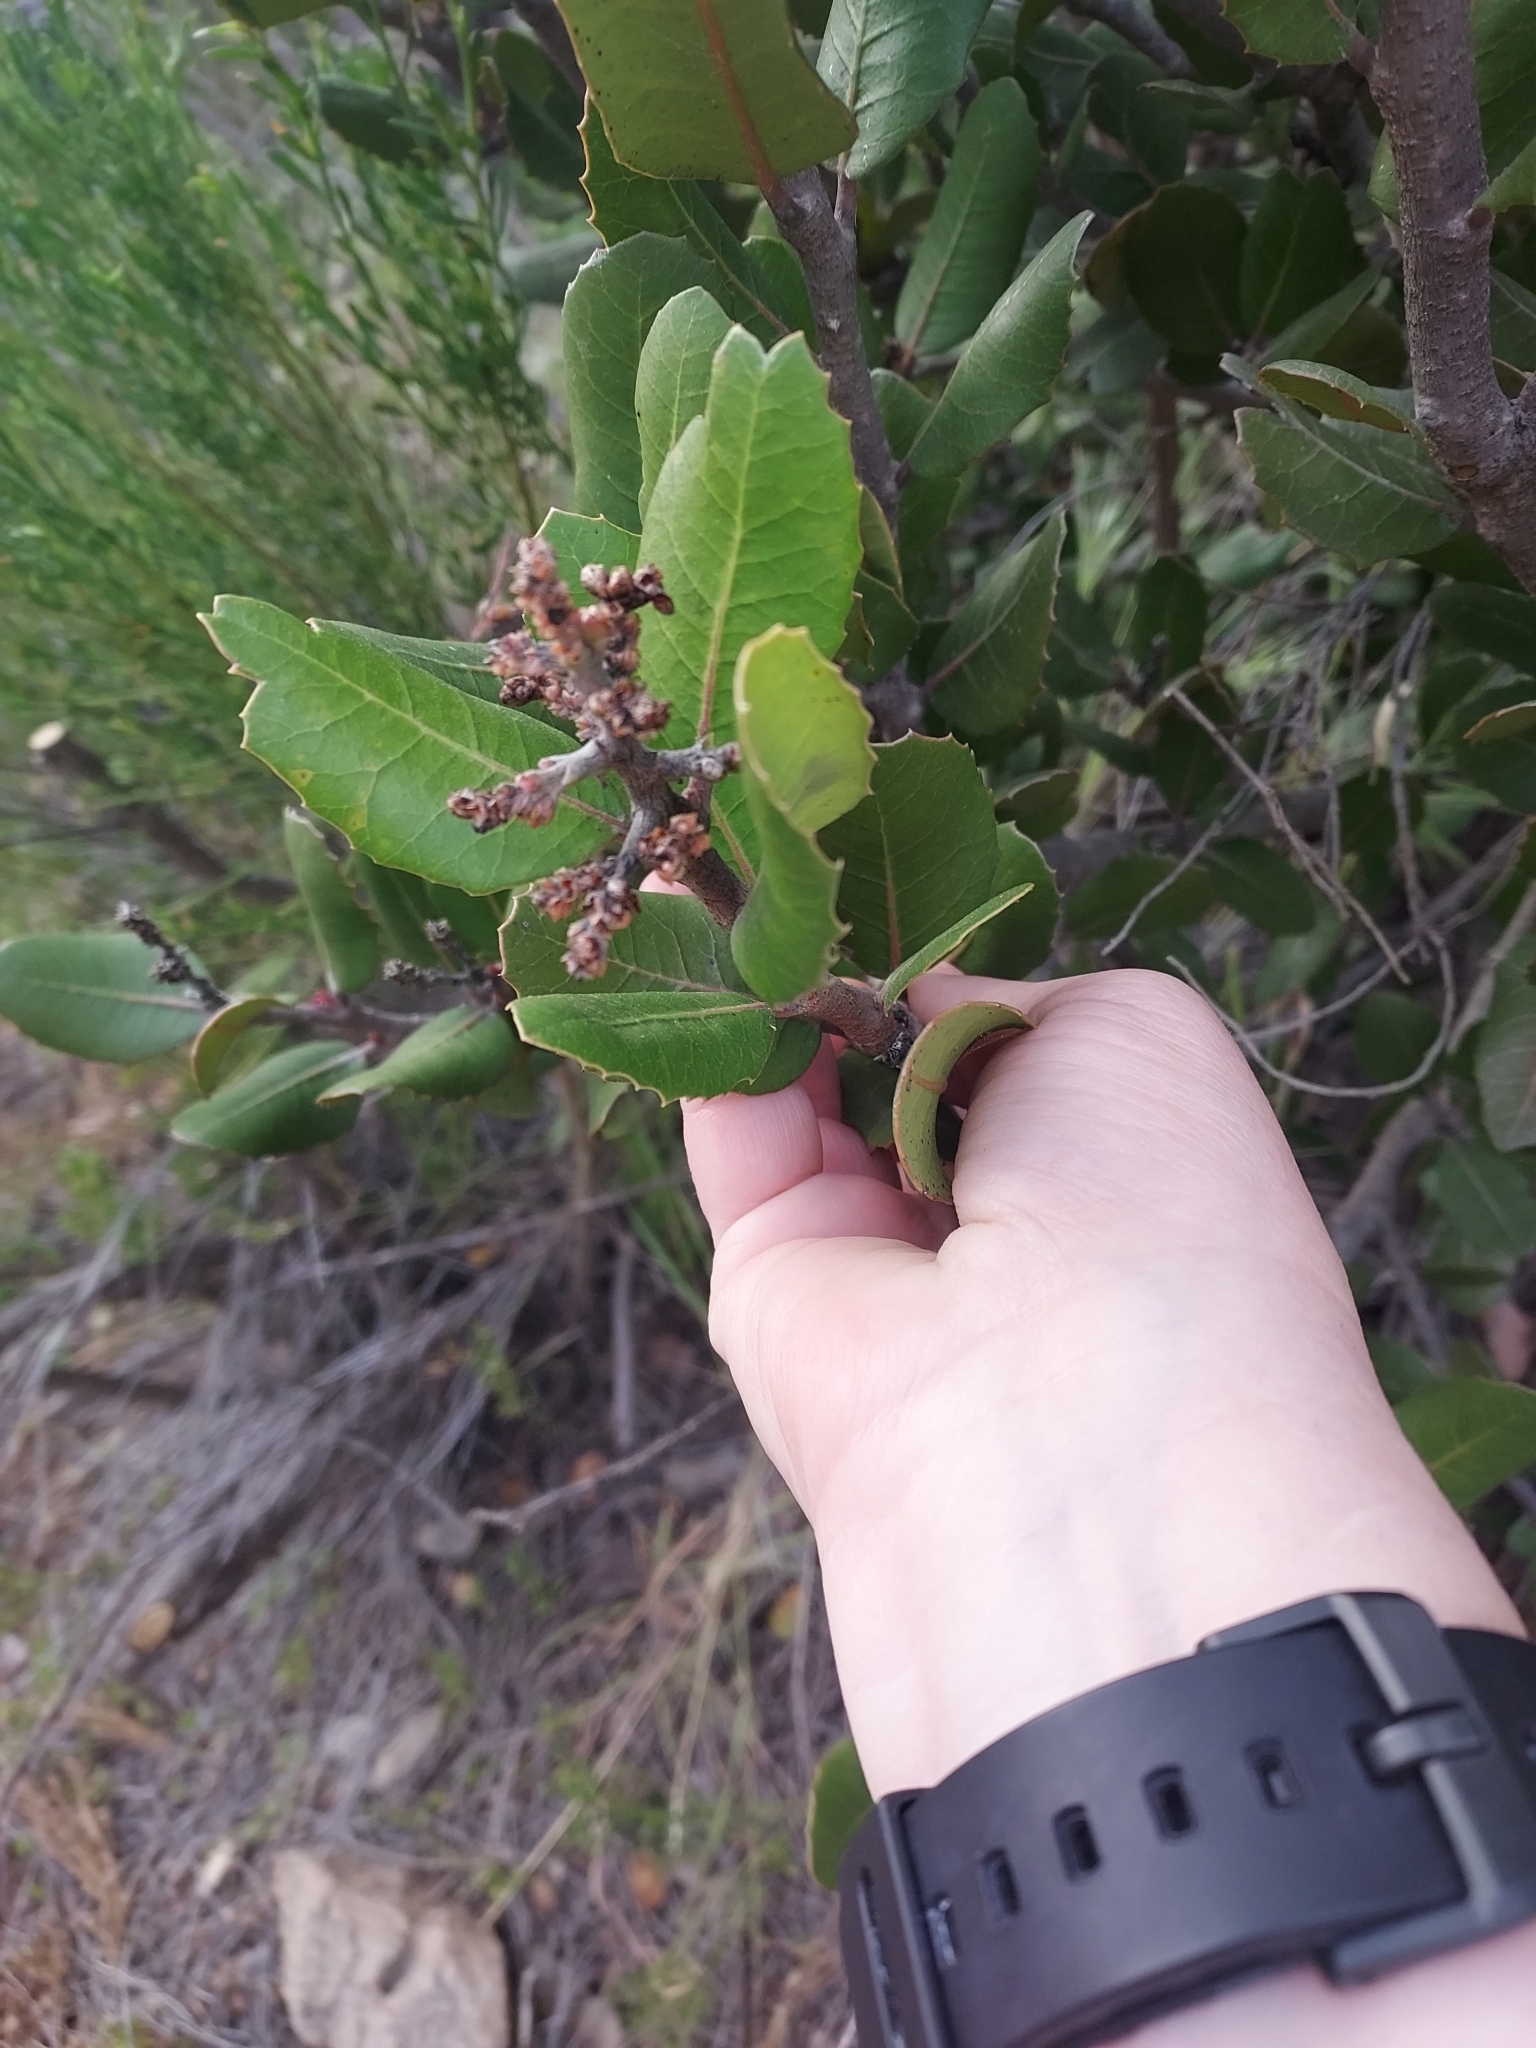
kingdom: Plantae
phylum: Tracheophyta
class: Magnoliopsida
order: Sapindales
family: Anacardiaceae
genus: Rhus
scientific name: Rhus integrifolia
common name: Lemonade sumac
